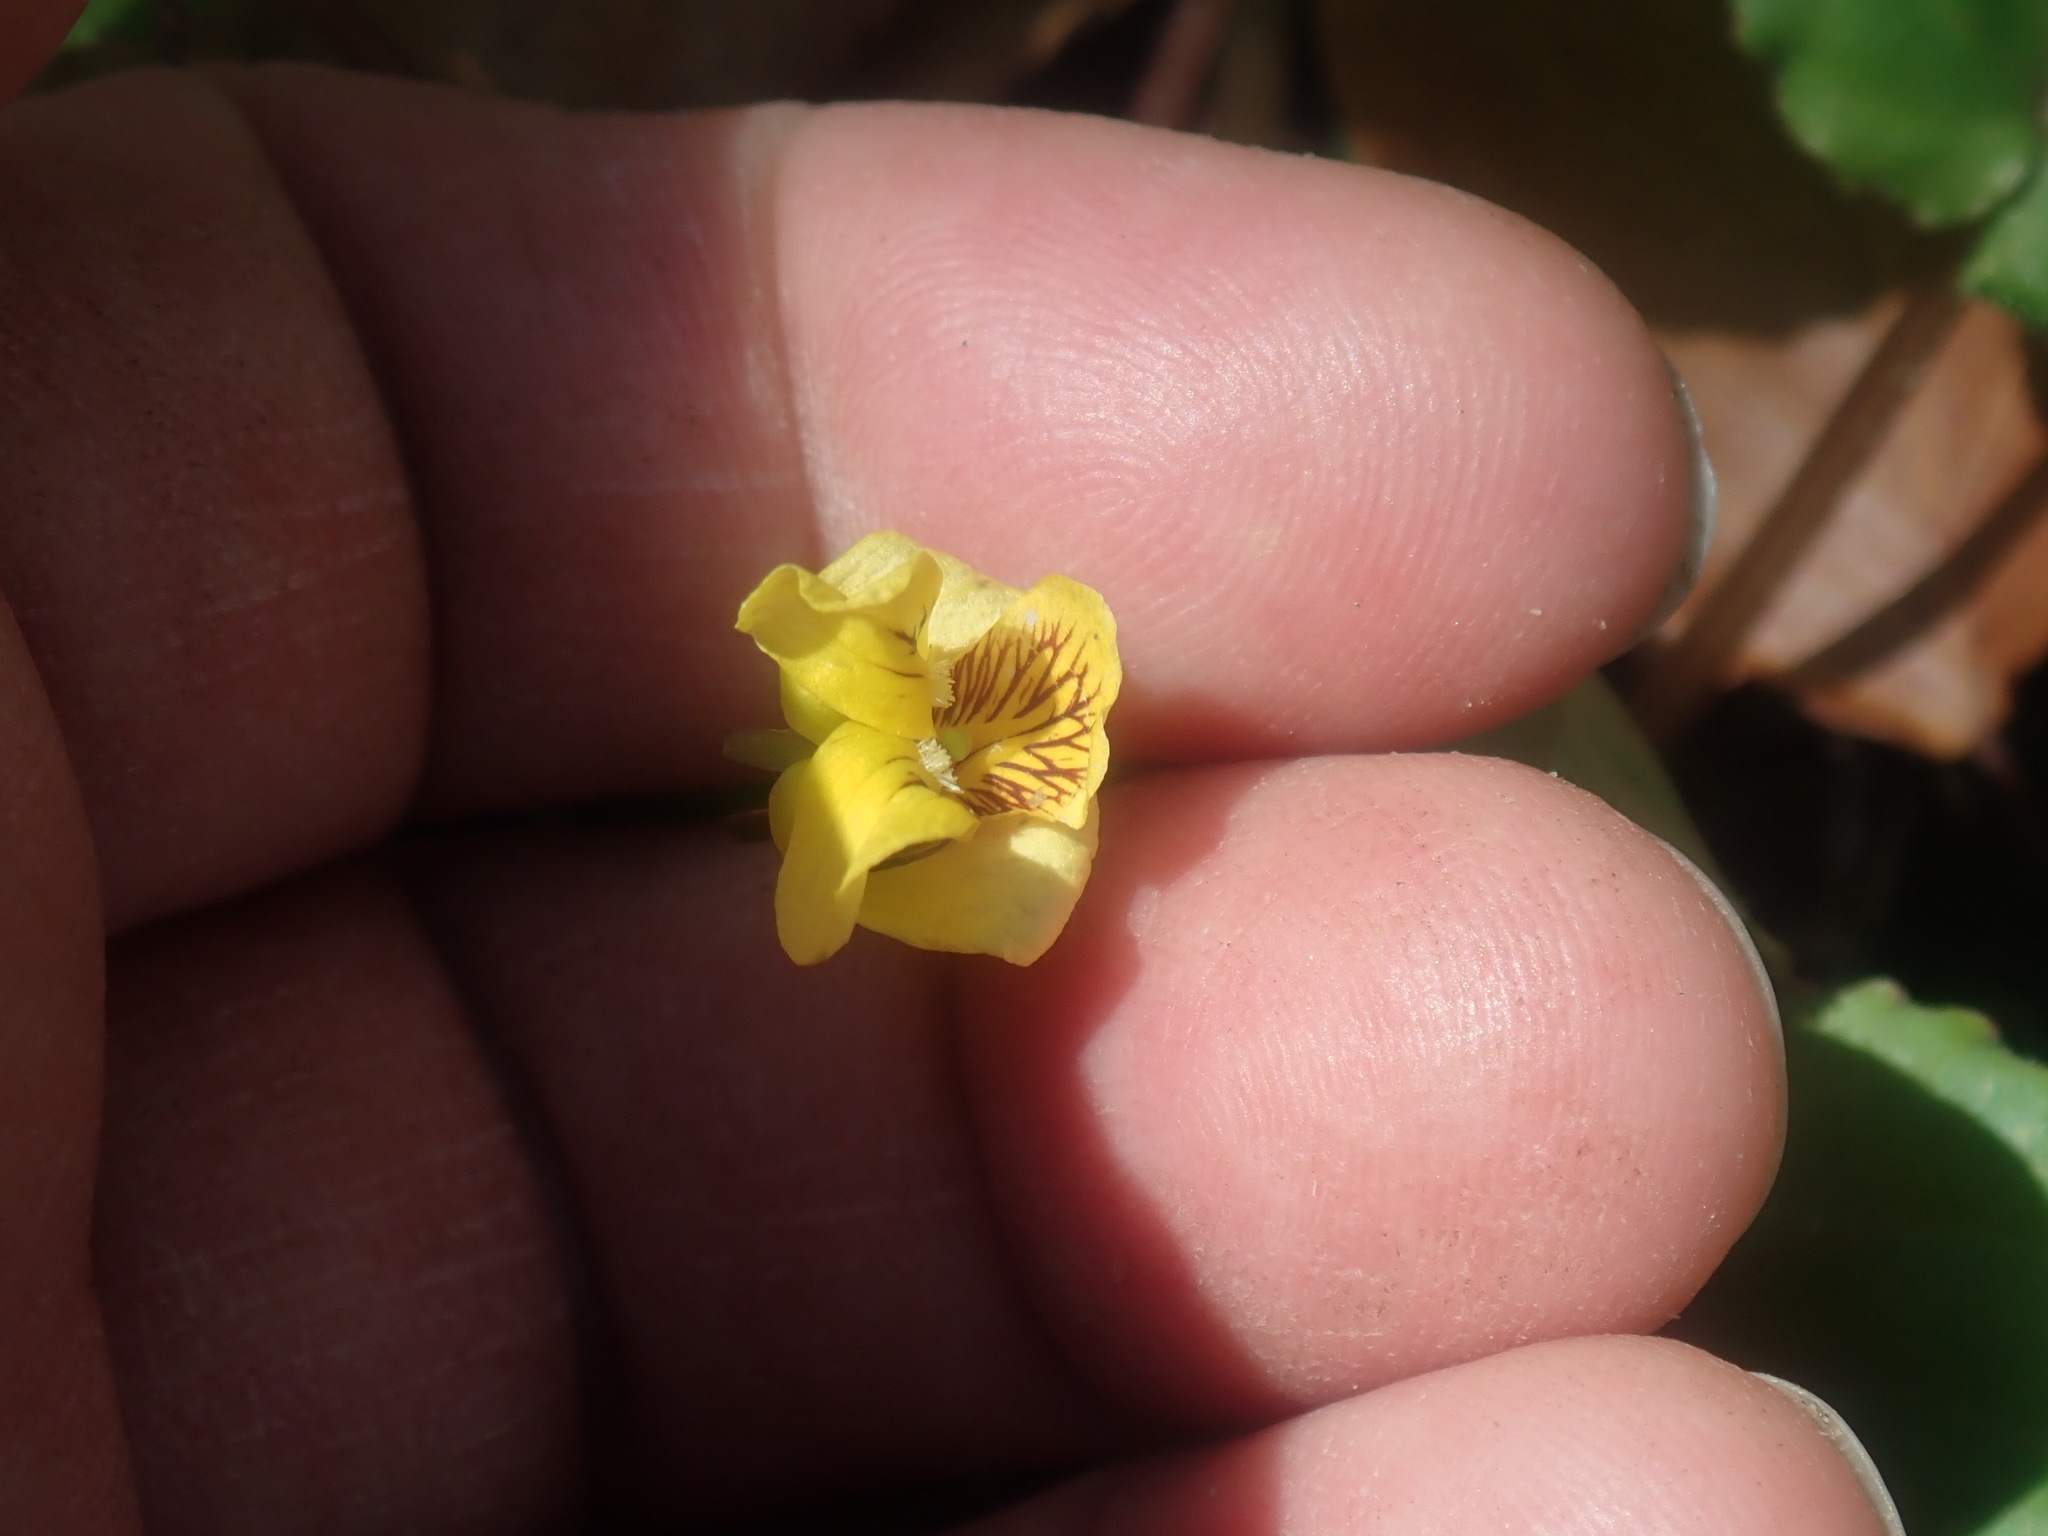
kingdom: Plantae
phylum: Tracheophyta
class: Magnoliopsida
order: Malpighiales
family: Violaceae
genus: Viola
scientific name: Viola rotundifolia
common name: Early yellow violet
